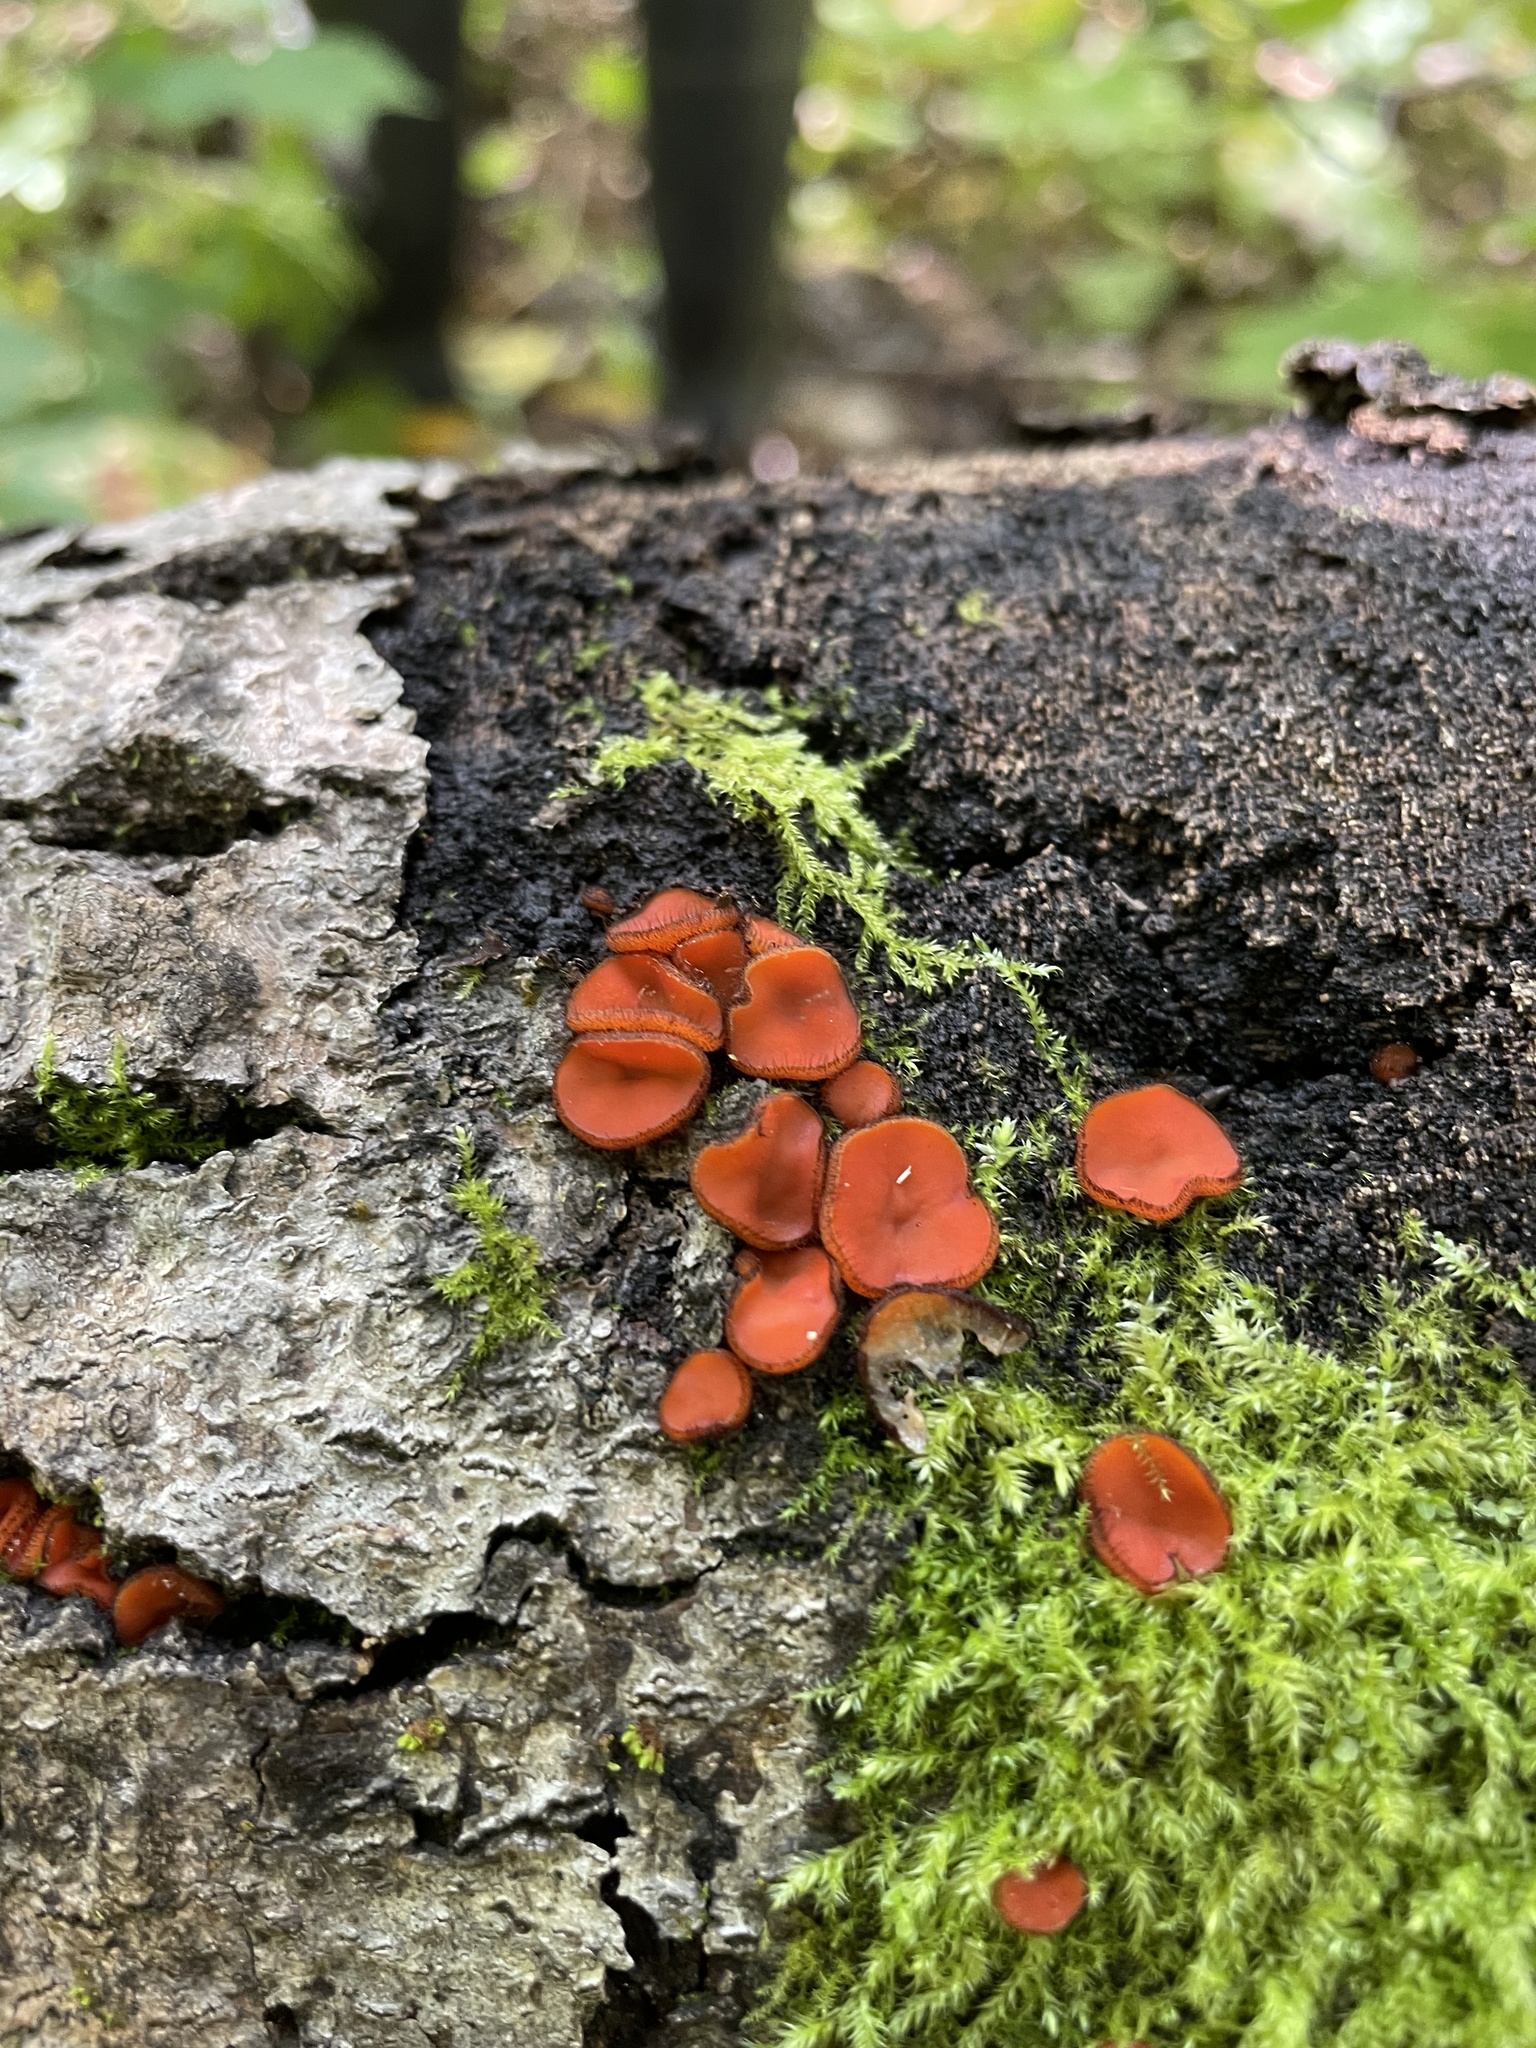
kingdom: Fungi
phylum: Ascomycota
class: Pezizomycetes
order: Pezizales
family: Pyronemataceae
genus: Scutellinia
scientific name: Scutellinia
